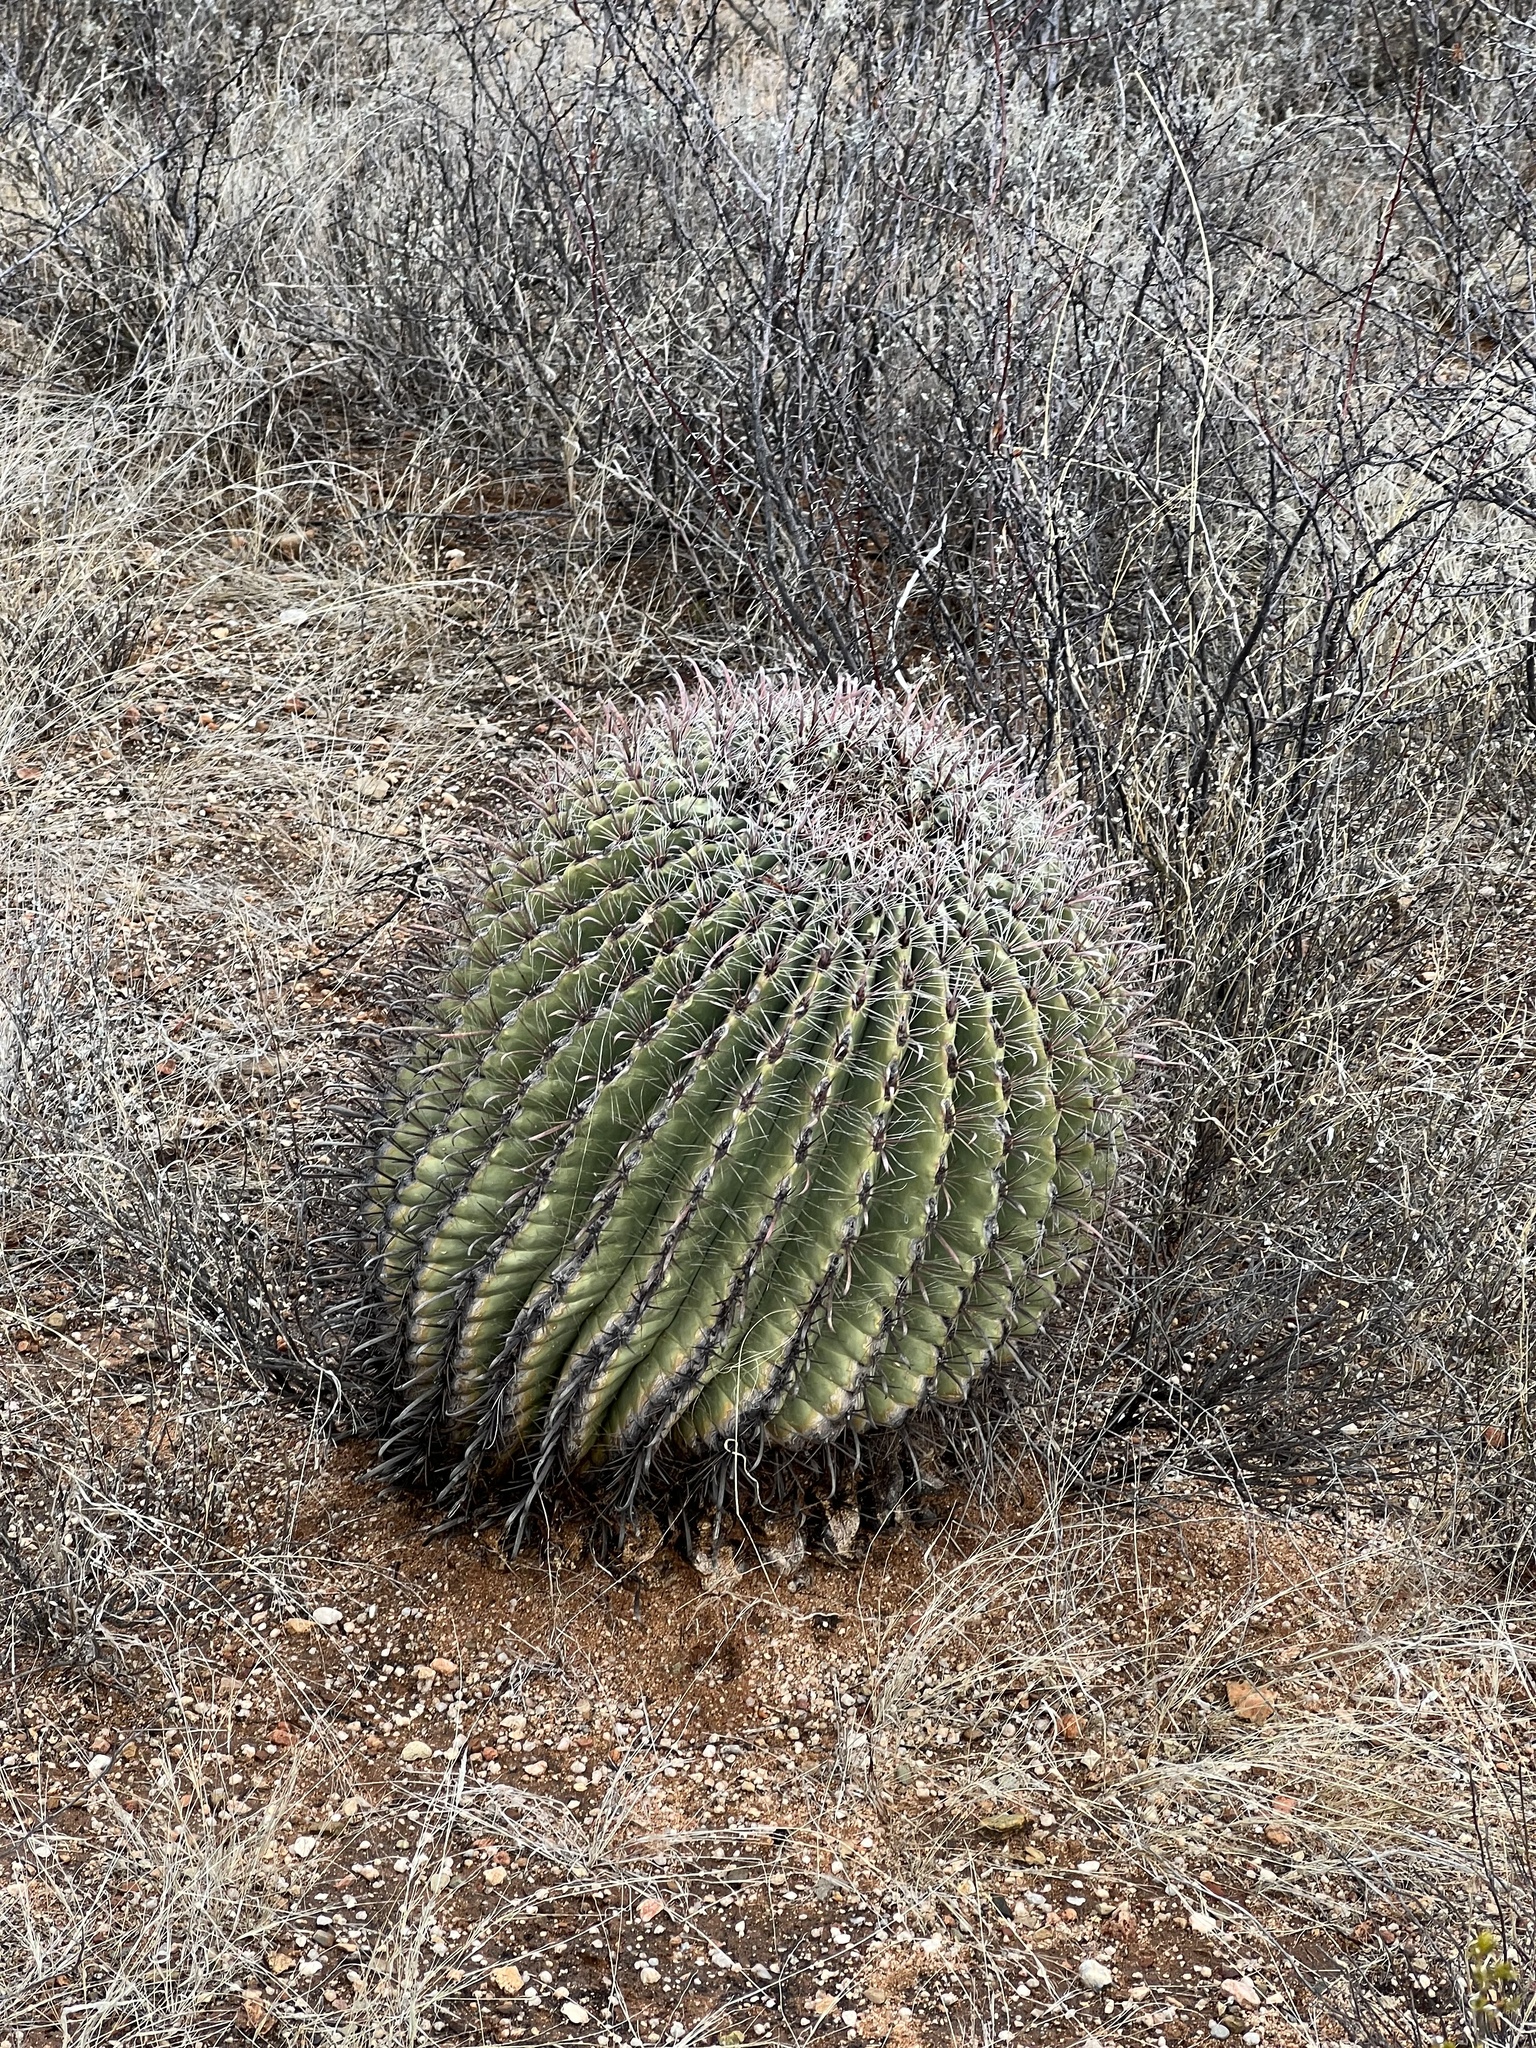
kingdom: Plantae
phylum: Tracheophyta
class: Magnoliopsida
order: Caryophyllales
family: Cactaceae
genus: Ferocactus
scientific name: Ferocactus wislizeni
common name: Candy barrel cactus
